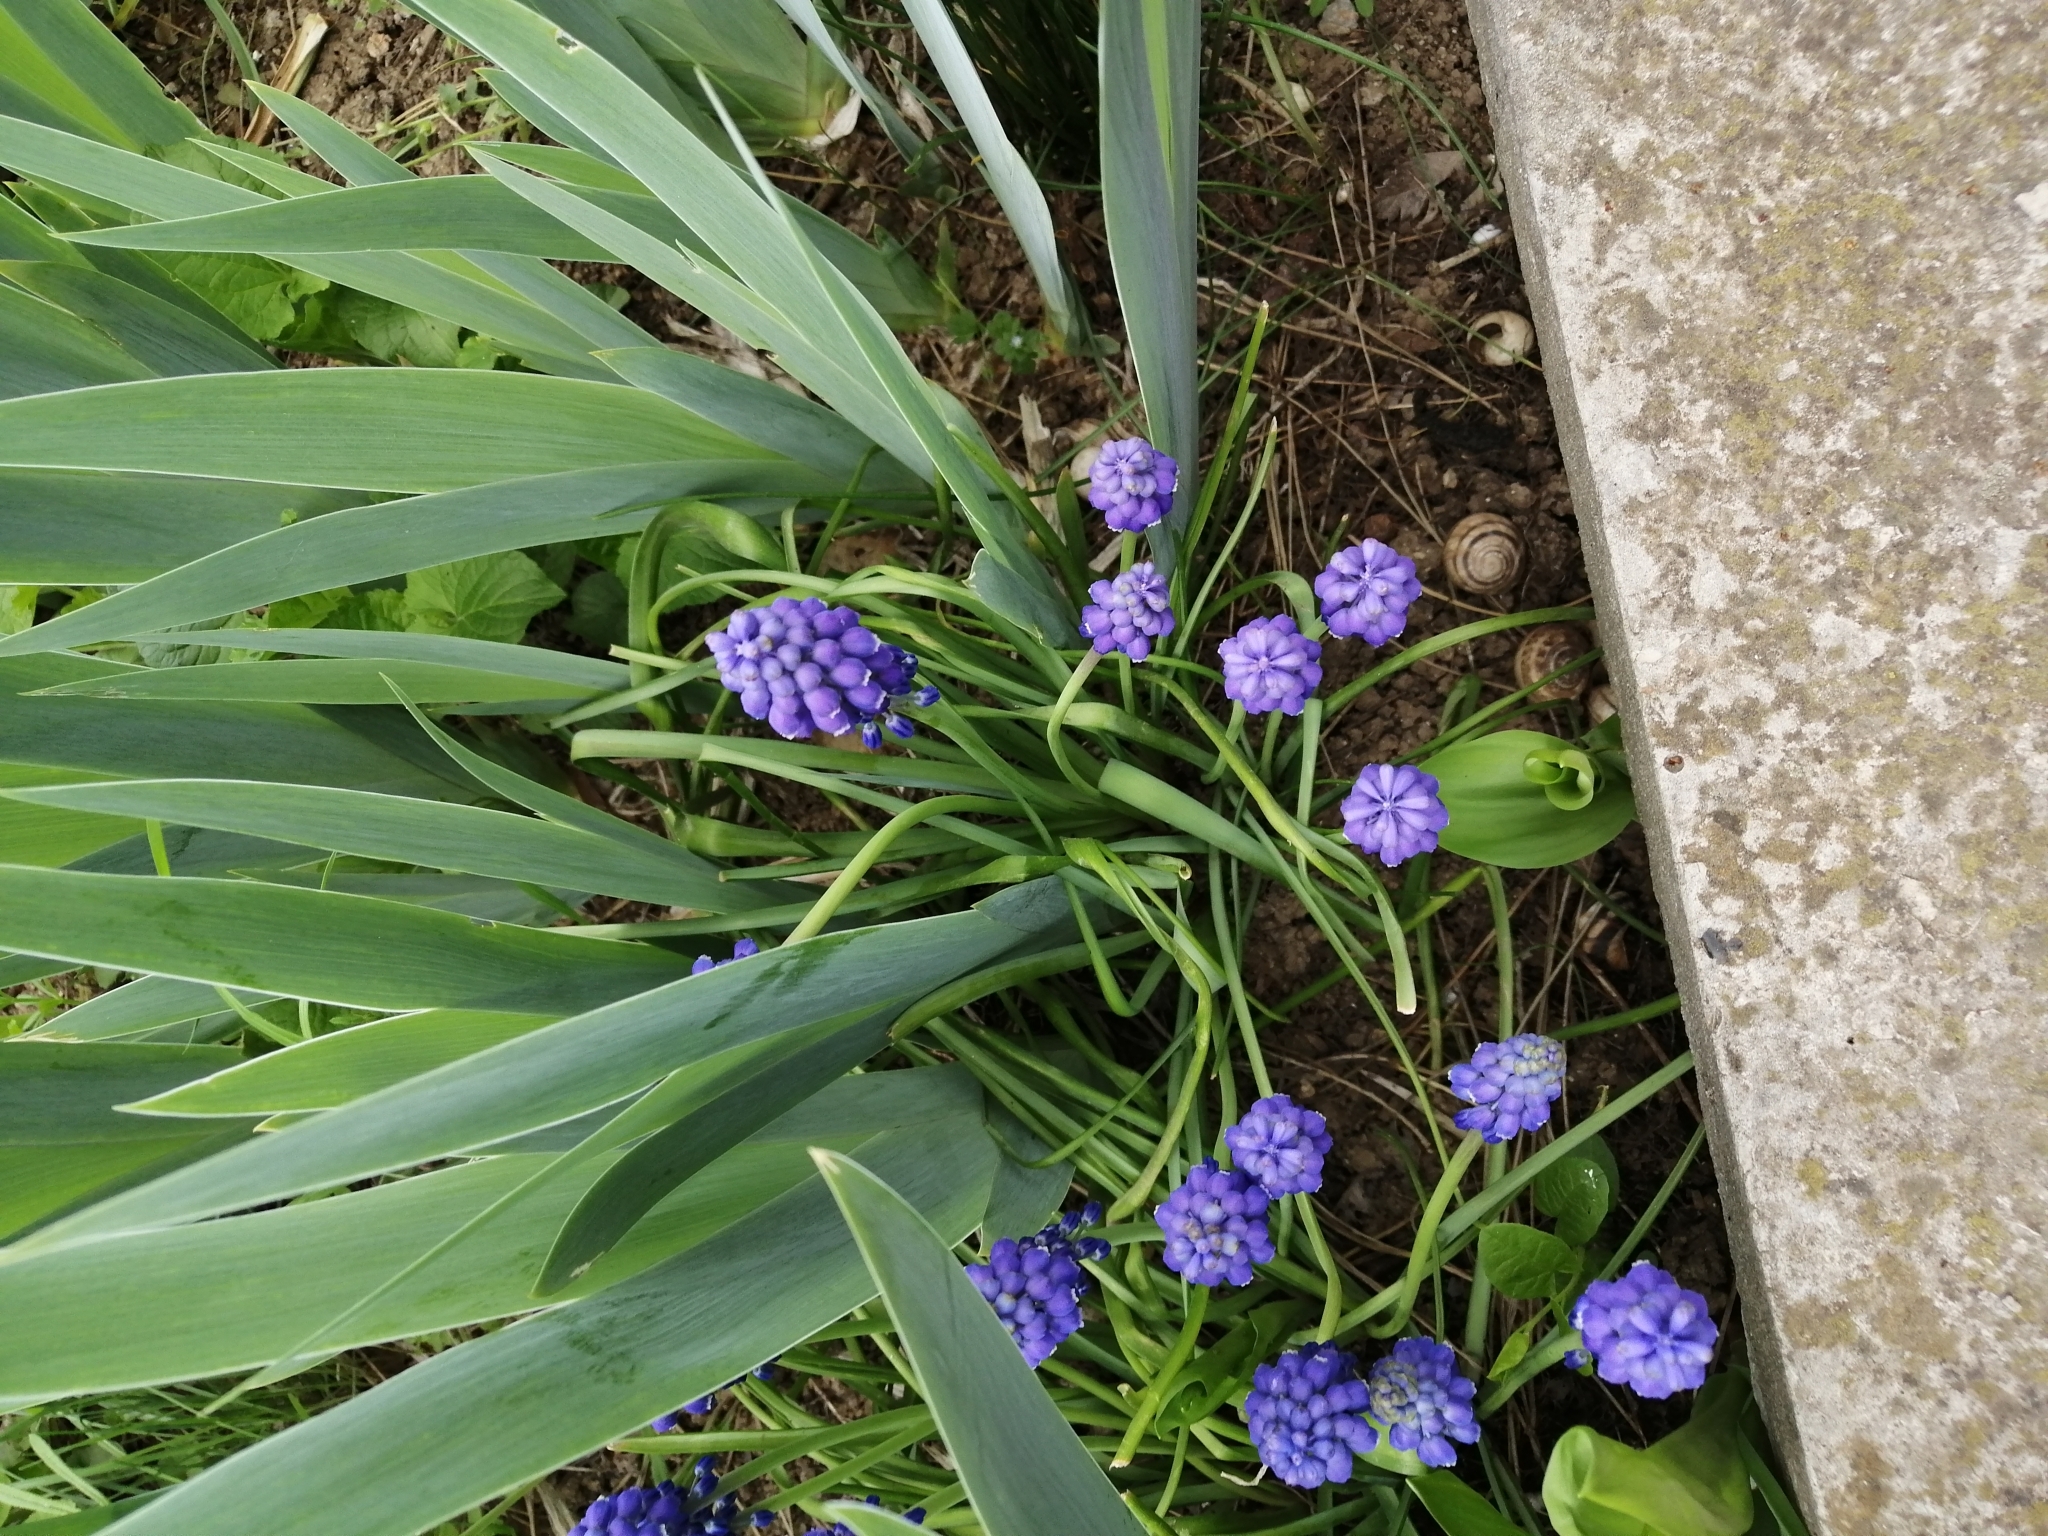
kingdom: Plantae
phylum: Tracheophyta
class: Liliopsida
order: Asparagales
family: Asparagaceae
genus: Muscari
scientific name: Muscari neglectum
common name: Grape-hyacinth
